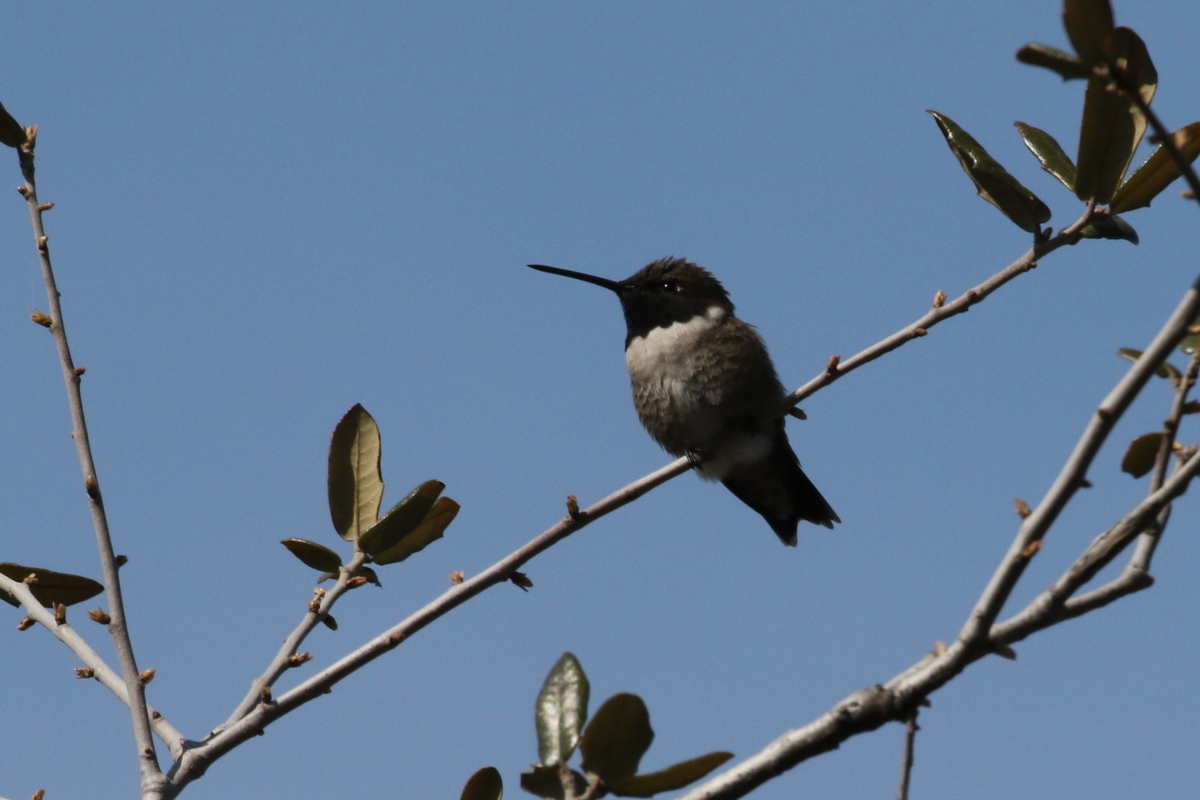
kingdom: Animalia
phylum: Chordata
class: Aves
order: Apodiformes
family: Trochilidae
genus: Archilochus
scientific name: Archilochus alexandri
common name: Black-chinned hummingbird
